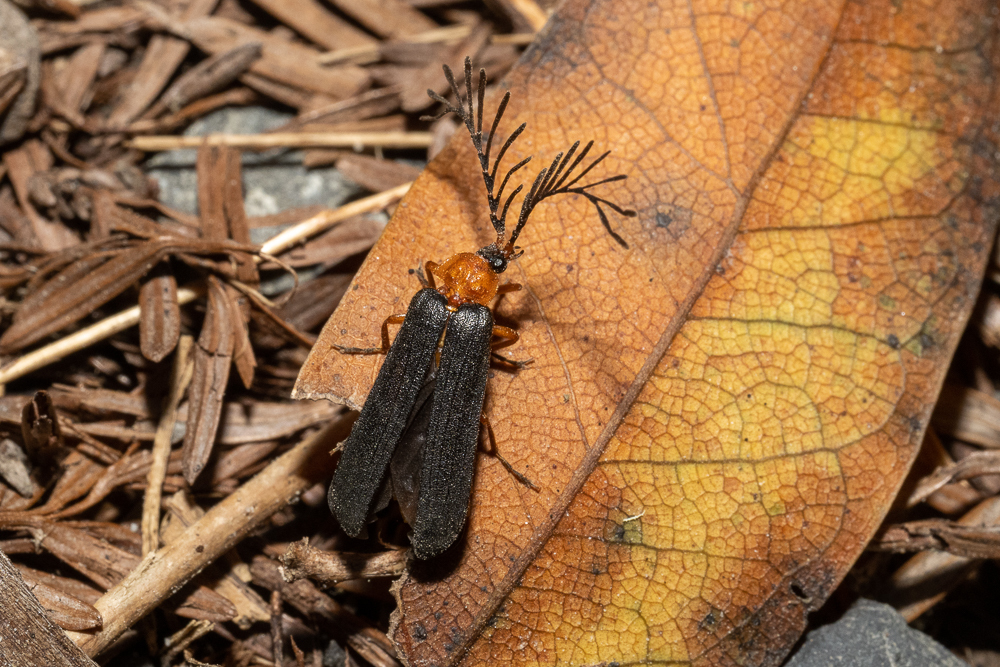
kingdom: Animalia
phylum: Arthropoda
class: Insecta
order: Coleoptera
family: Lampyridae
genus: Pterotus
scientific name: Pterotus obscuripennis
